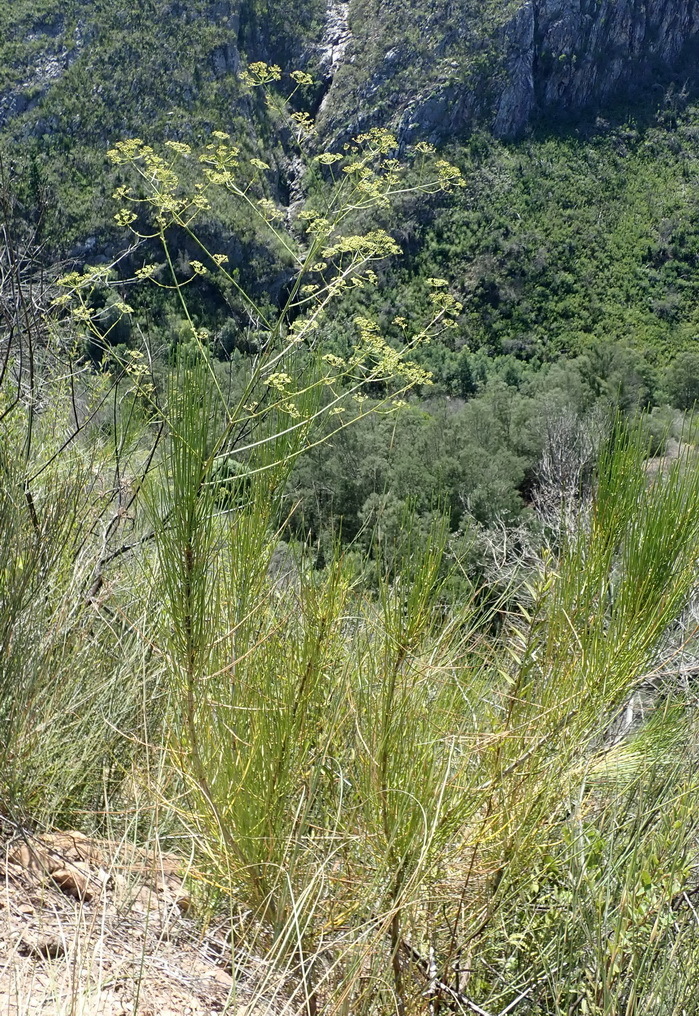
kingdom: Plantae
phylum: Tracheophyta
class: Magnoliopsida
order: Apiales
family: Apiaceae
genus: Anginon
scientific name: Anginon difforme
